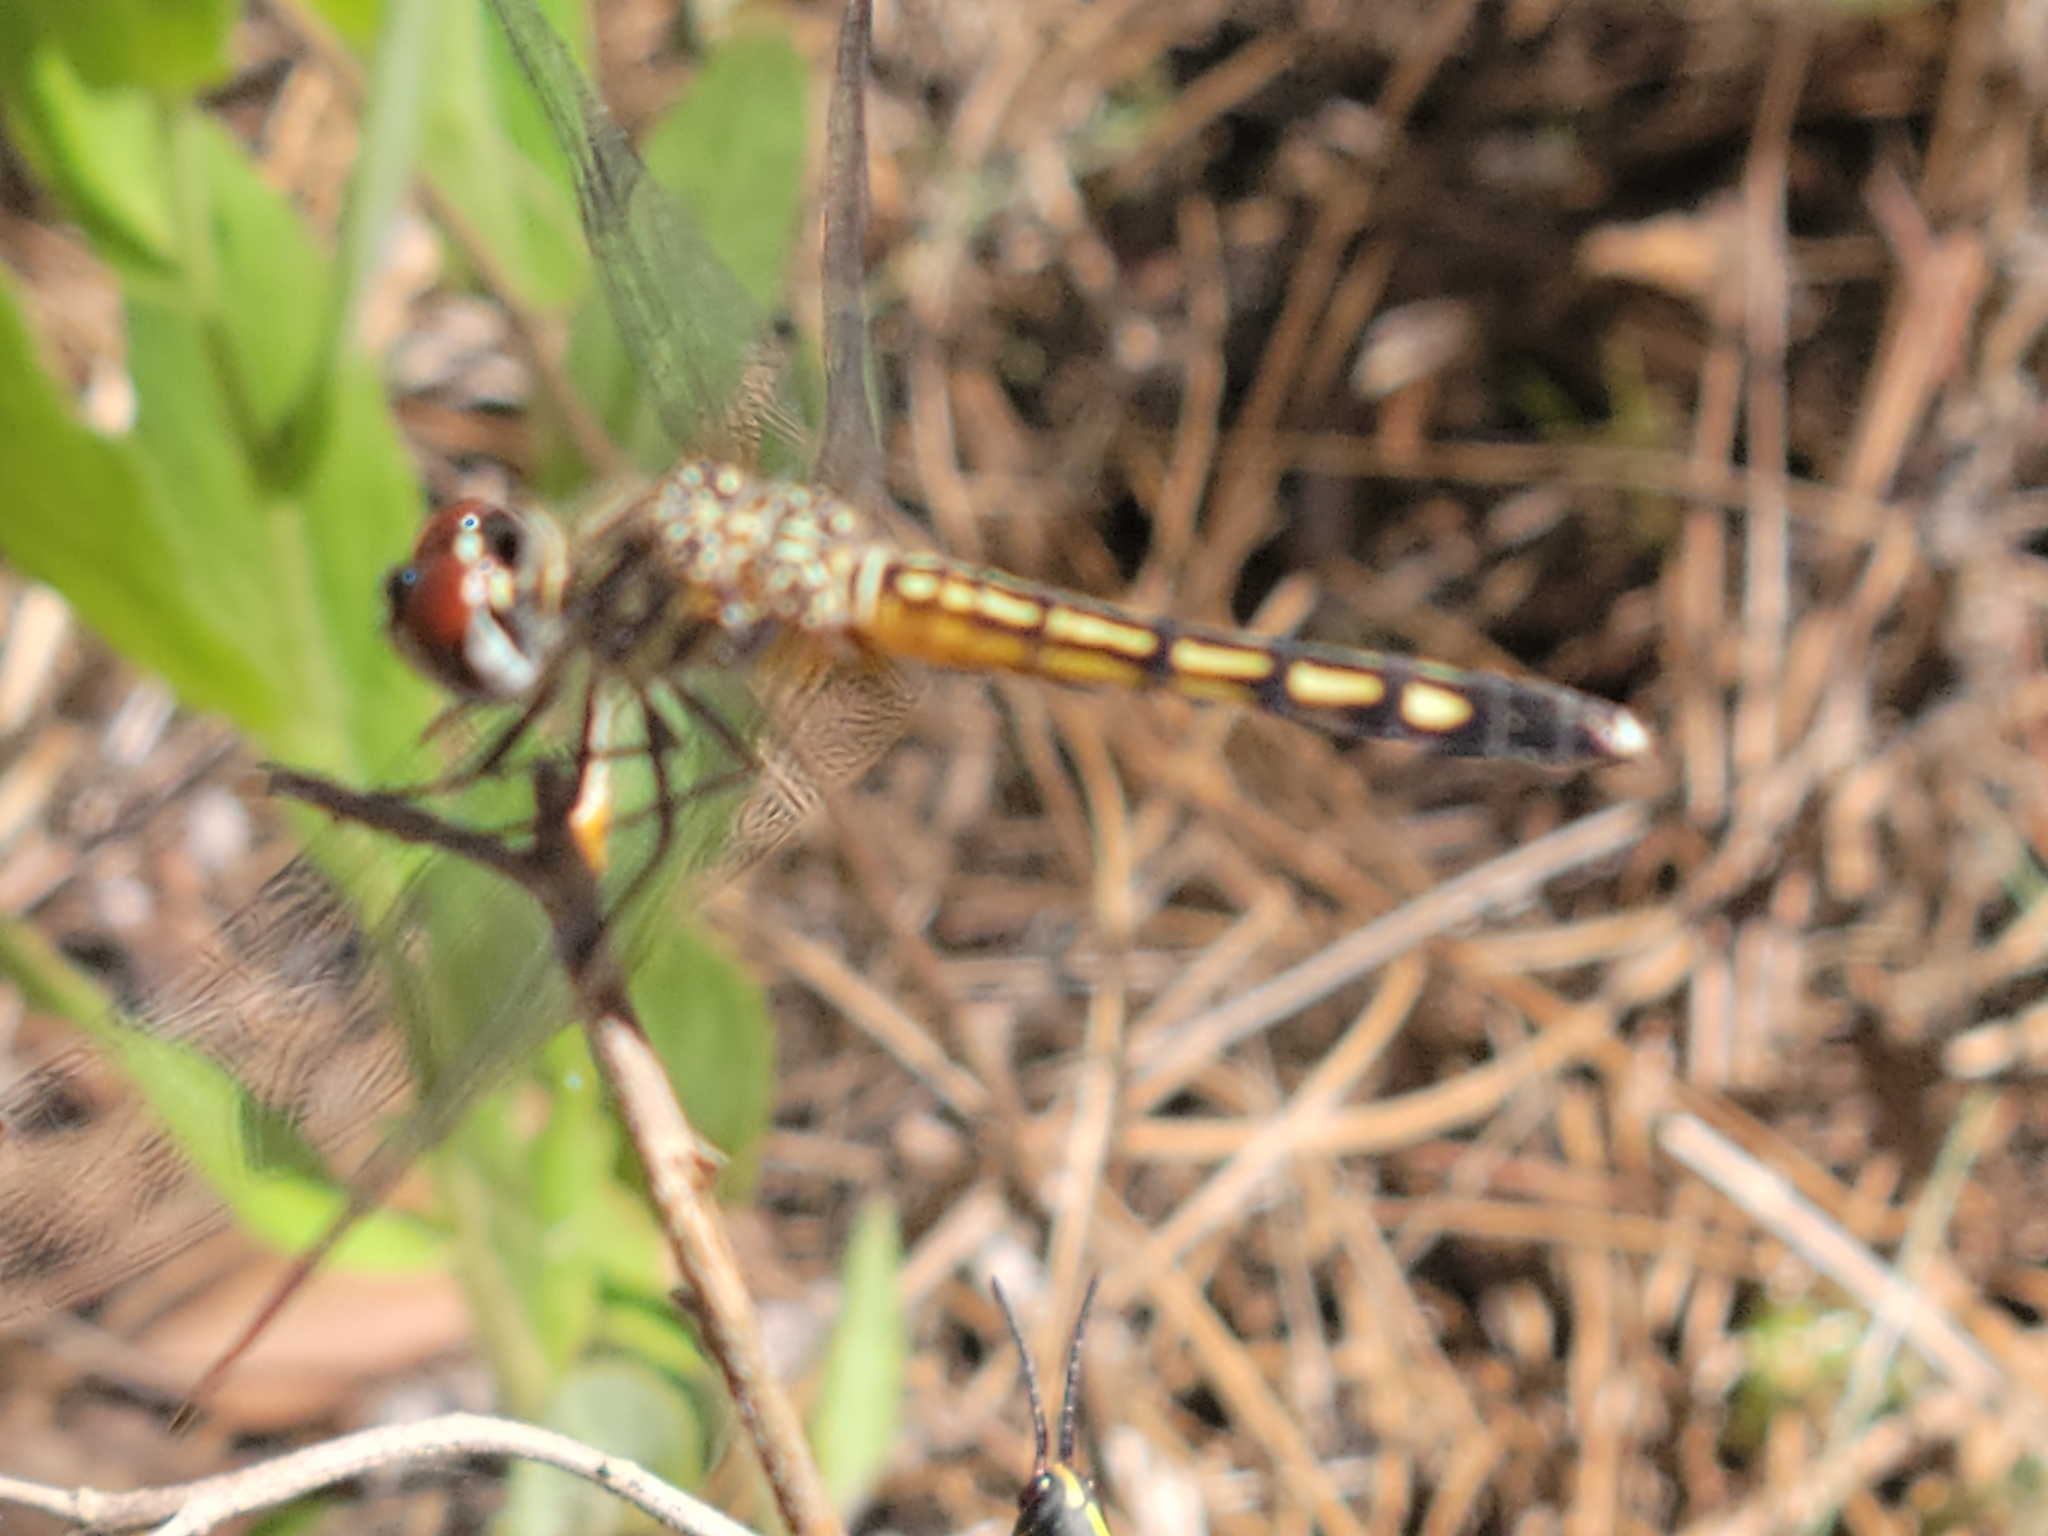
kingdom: Animalia
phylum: Arthropoda
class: Insecta
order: Odonata
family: Libellulidae
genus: Pachydiplax
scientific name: Pachydiplax longipennis
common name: Blue dasher
